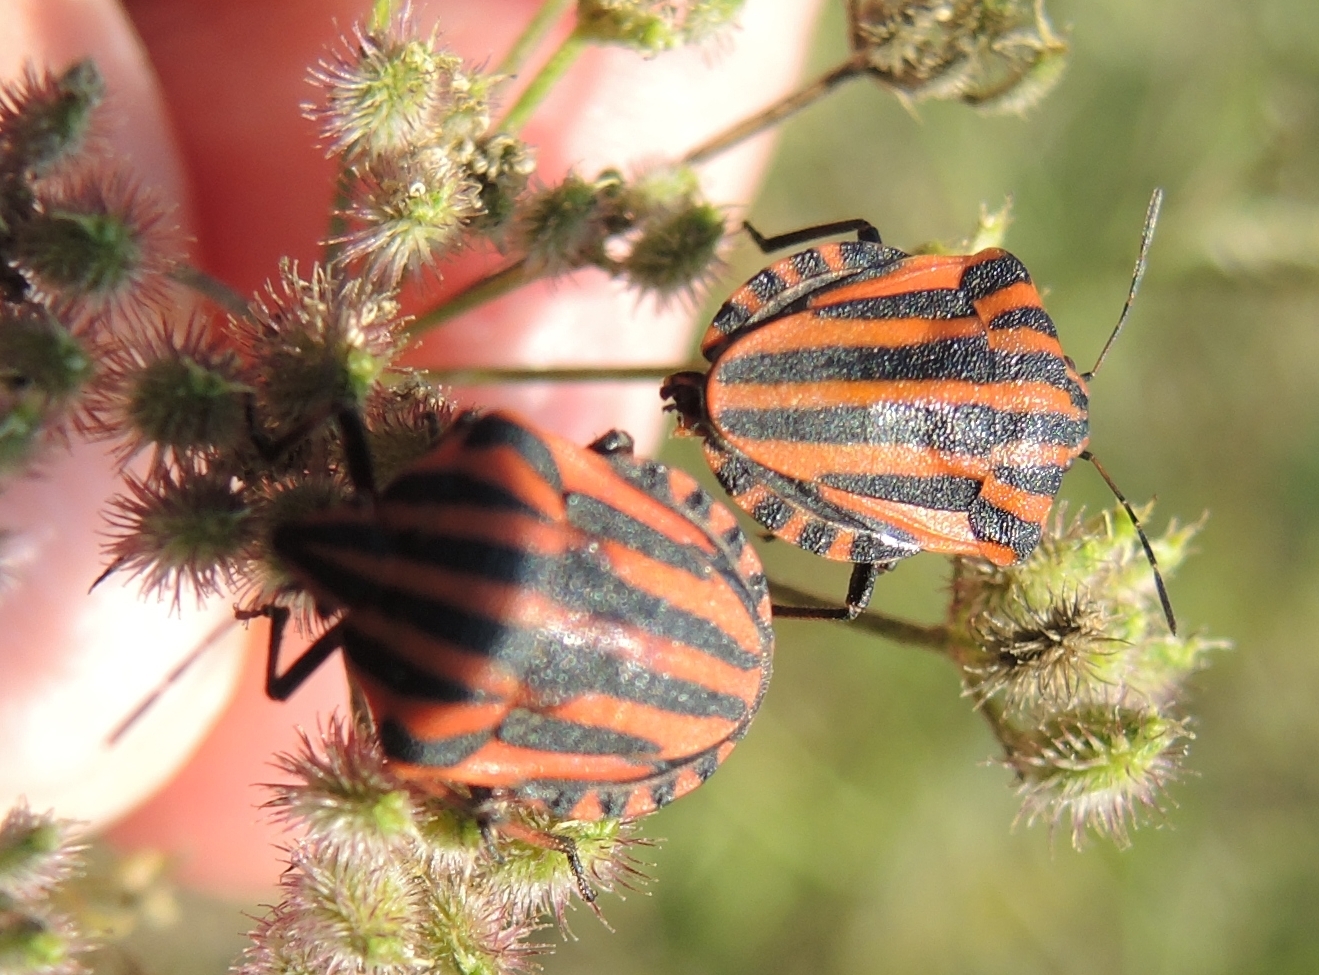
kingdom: Animalia
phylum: Arthropoda
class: Insecta
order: Hemiptera
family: Pentatomidae
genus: Graphosoma
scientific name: Graphosoma italicum
